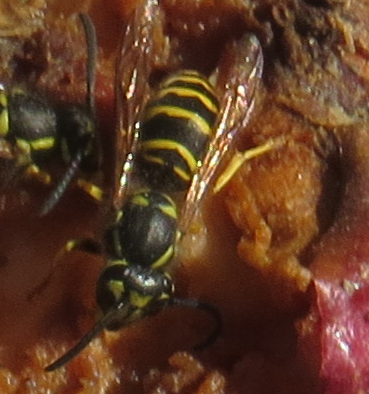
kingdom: Animalia
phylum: Arthropoda
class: Insecta
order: Hymenoptera
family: Vespidae
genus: Vespula
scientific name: Vespula maculifrons
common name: Eastern yellowjacket
